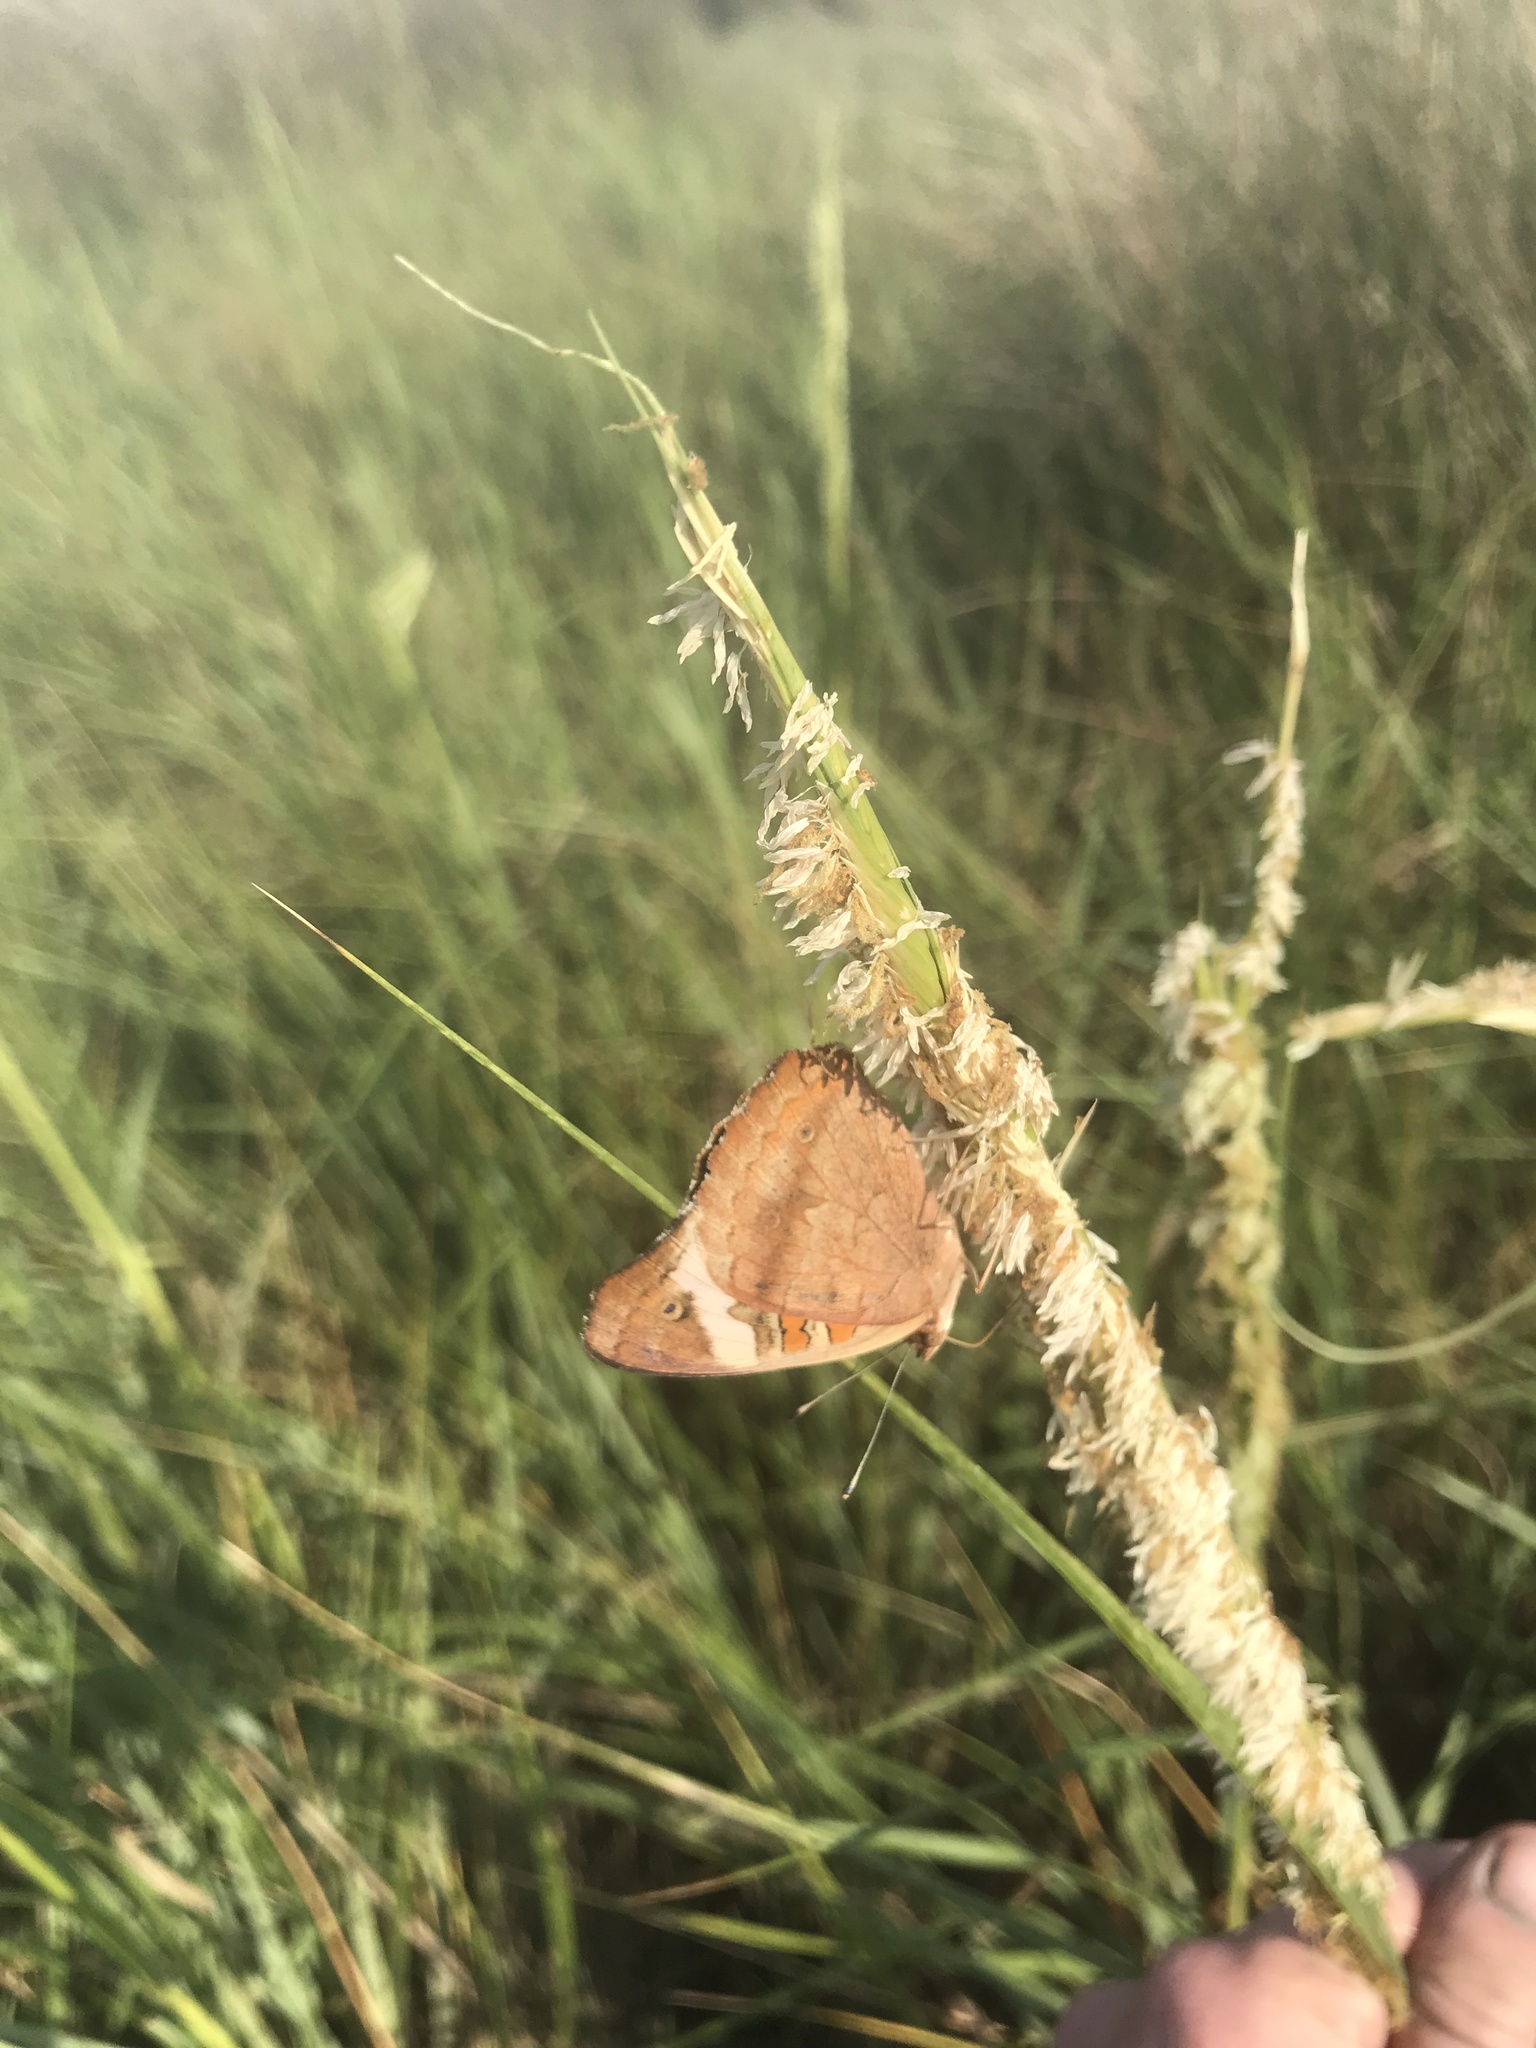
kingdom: Animalia
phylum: Arthropoda
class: Insecta
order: Lepidoptera
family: Nymphalidae
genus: Junonia
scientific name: Junonia coenia
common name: Common buckeye
